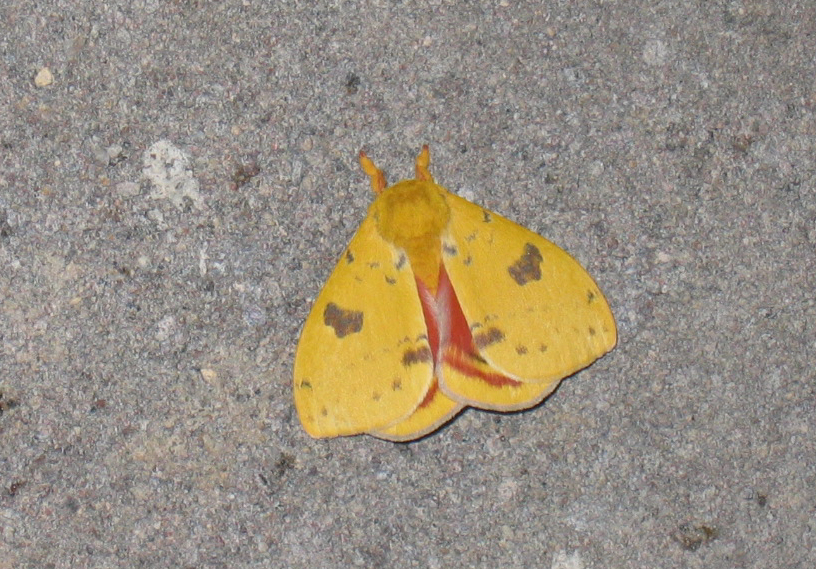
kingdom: Animalia
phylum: Arthropoda
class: Insecta
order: Lepidoptera
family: Saturniidae
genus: Automeris
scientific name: Automeris io
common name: Io moth
